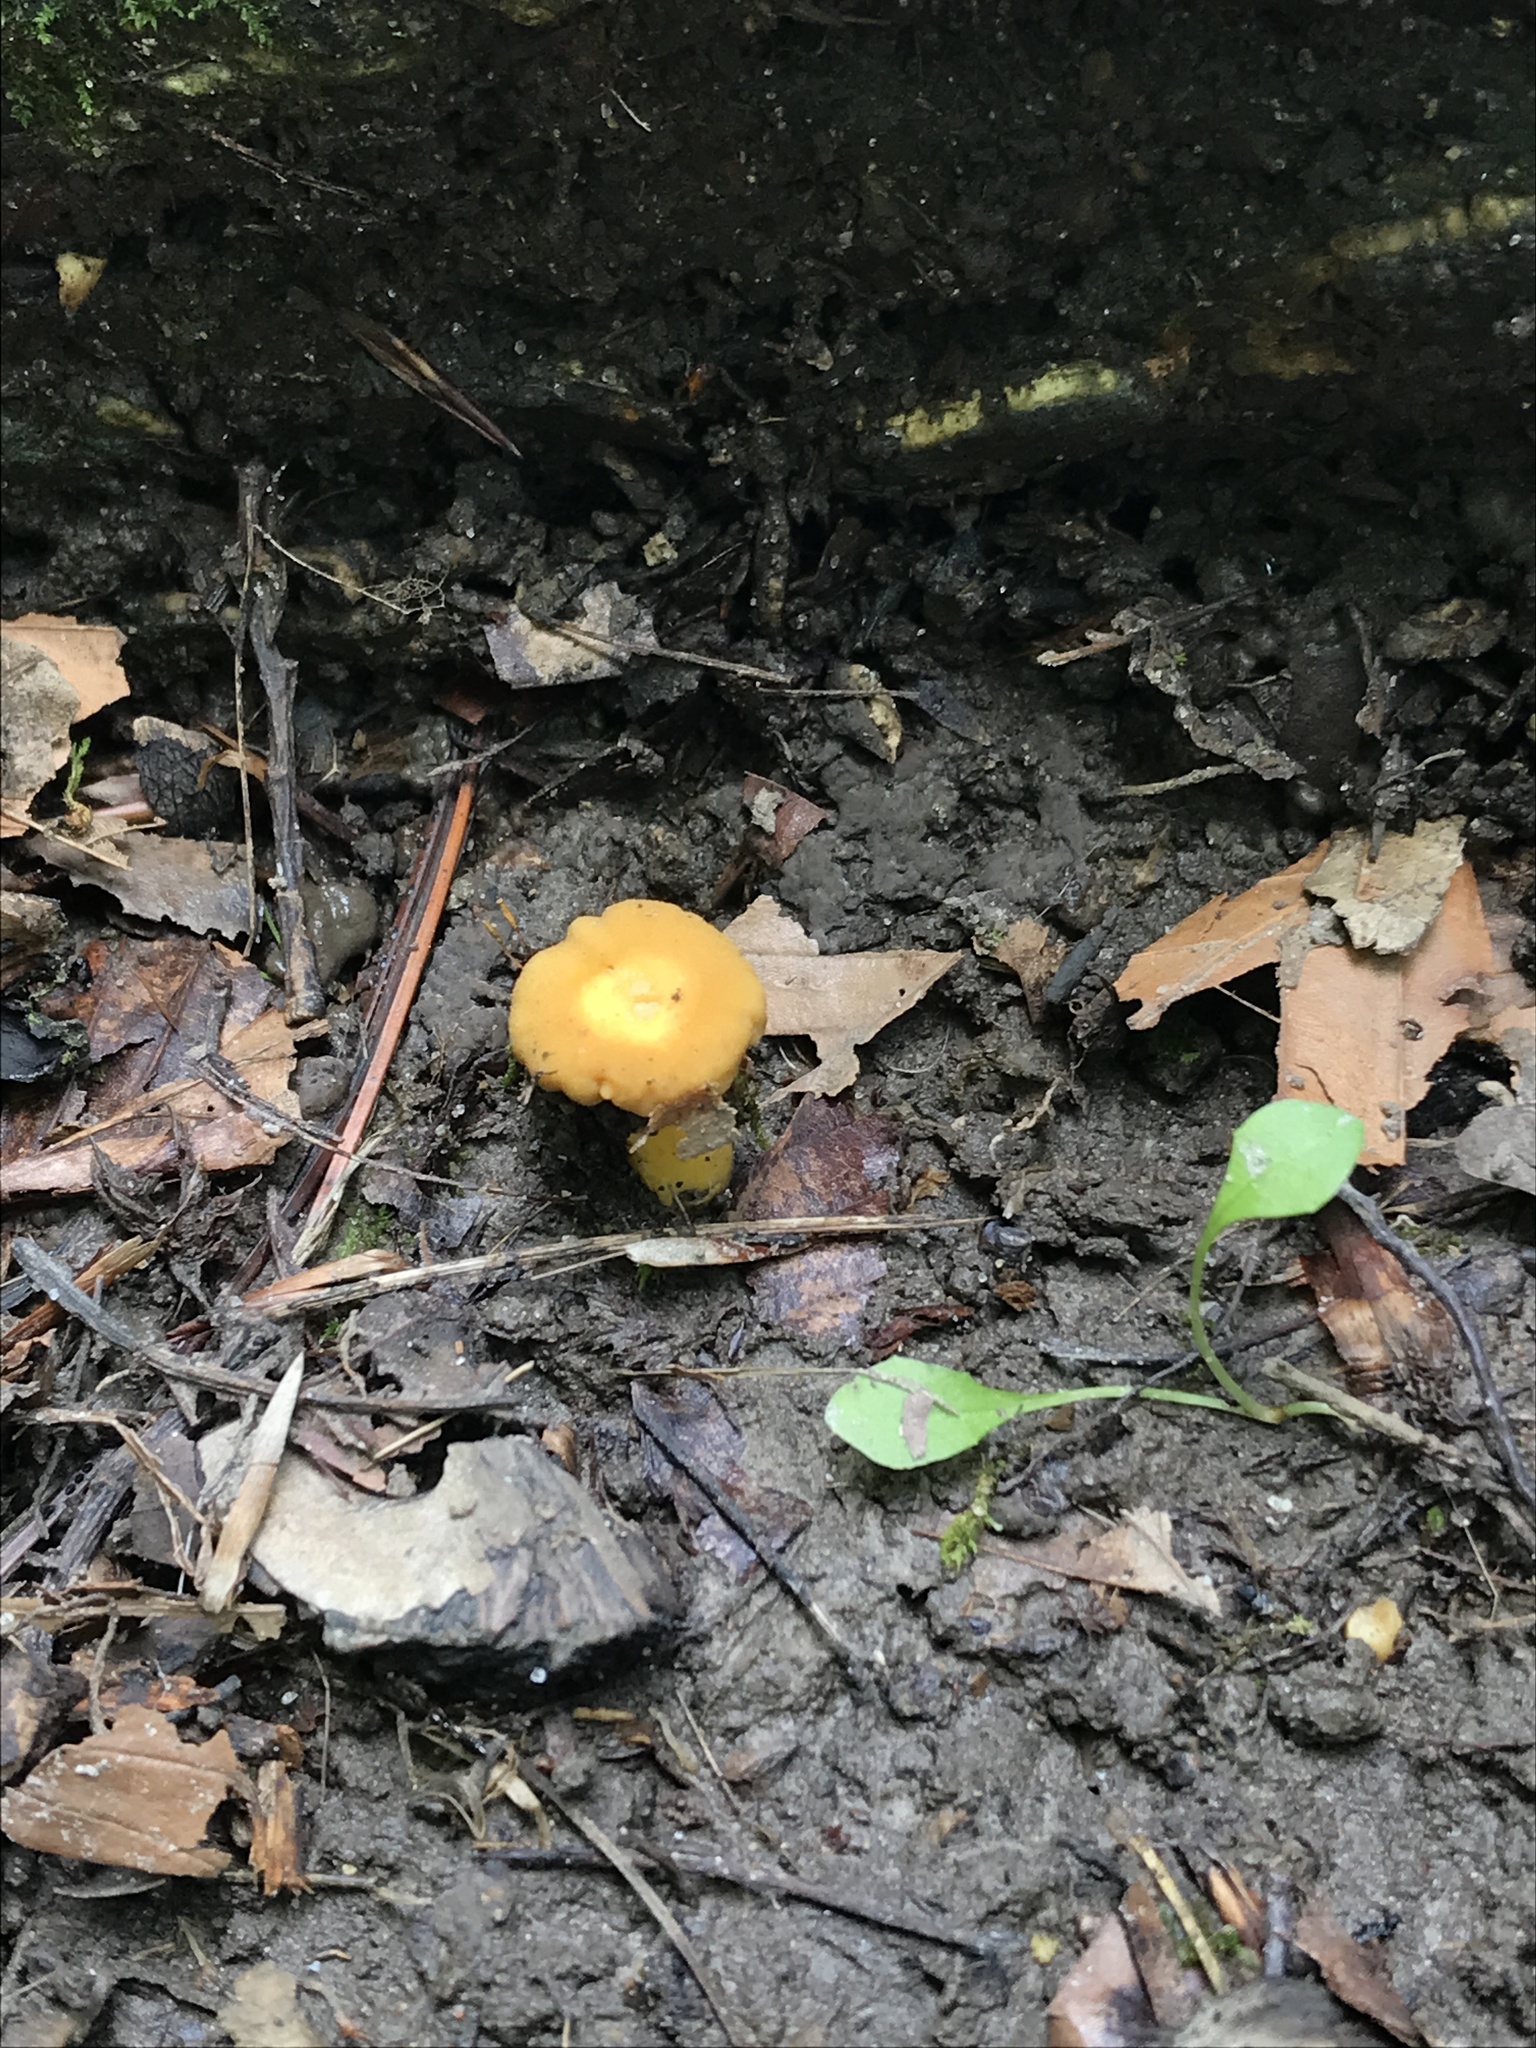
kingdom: Fungi
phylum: Basidiomycota
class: Agaricomycetes
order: Cantharellales
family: Hydnaceae
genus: Cantharellus
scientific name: Cantharellus flavolateritius
